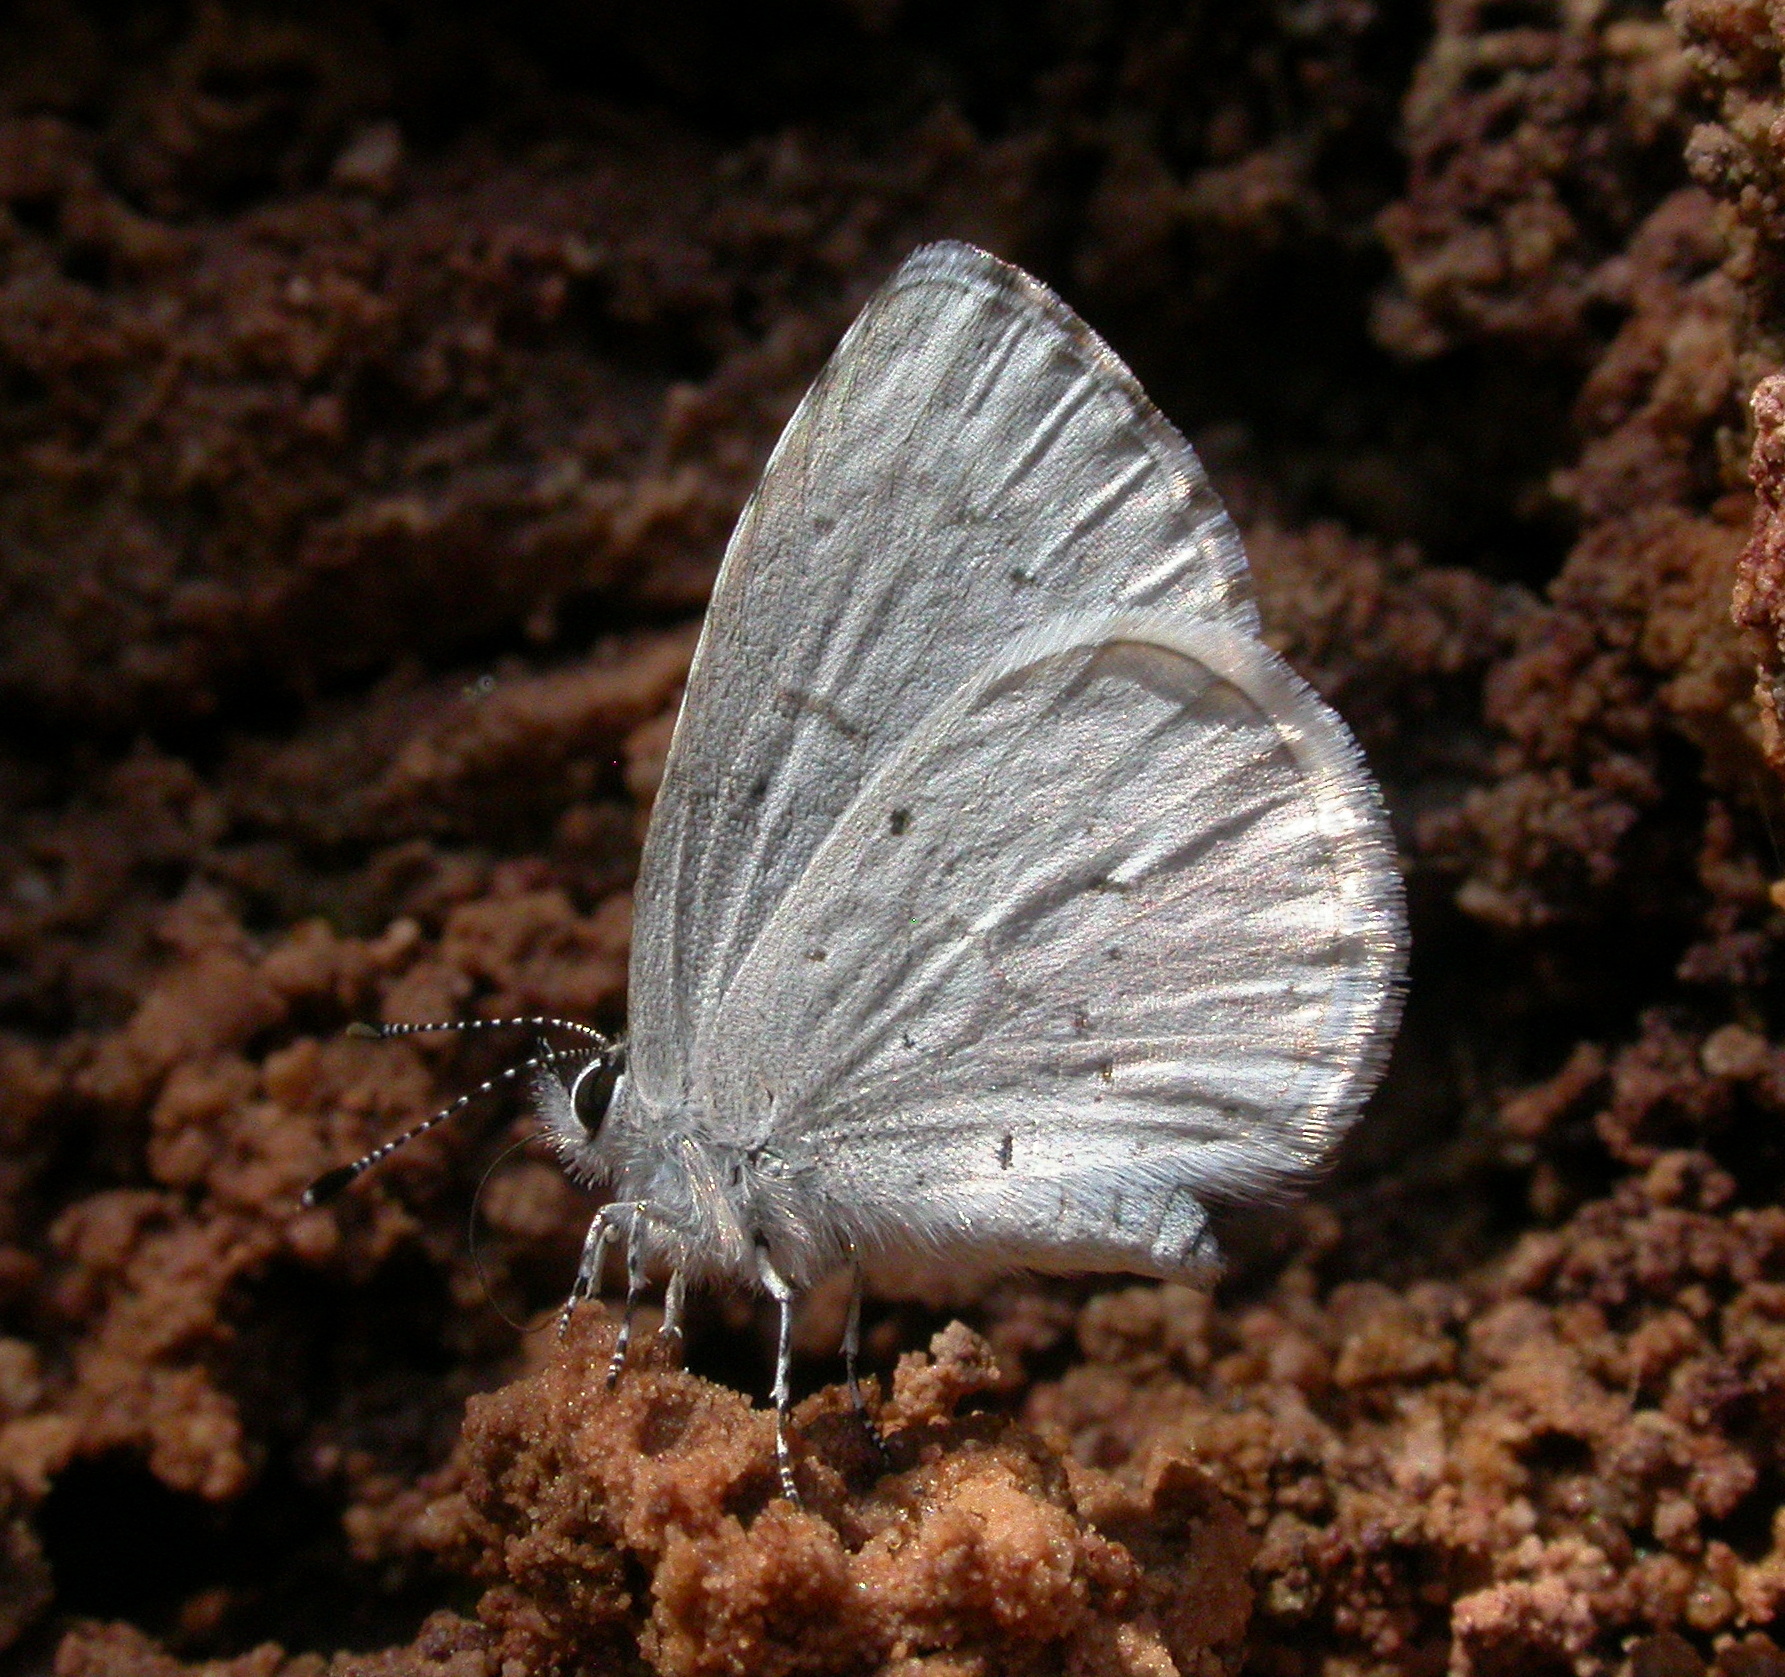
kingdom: Animalia
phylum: Arthropoda
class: Insecta
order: Lepidoptera
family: Lycaenidae
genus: Cyaniris
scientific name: Cyaniris neglecta
